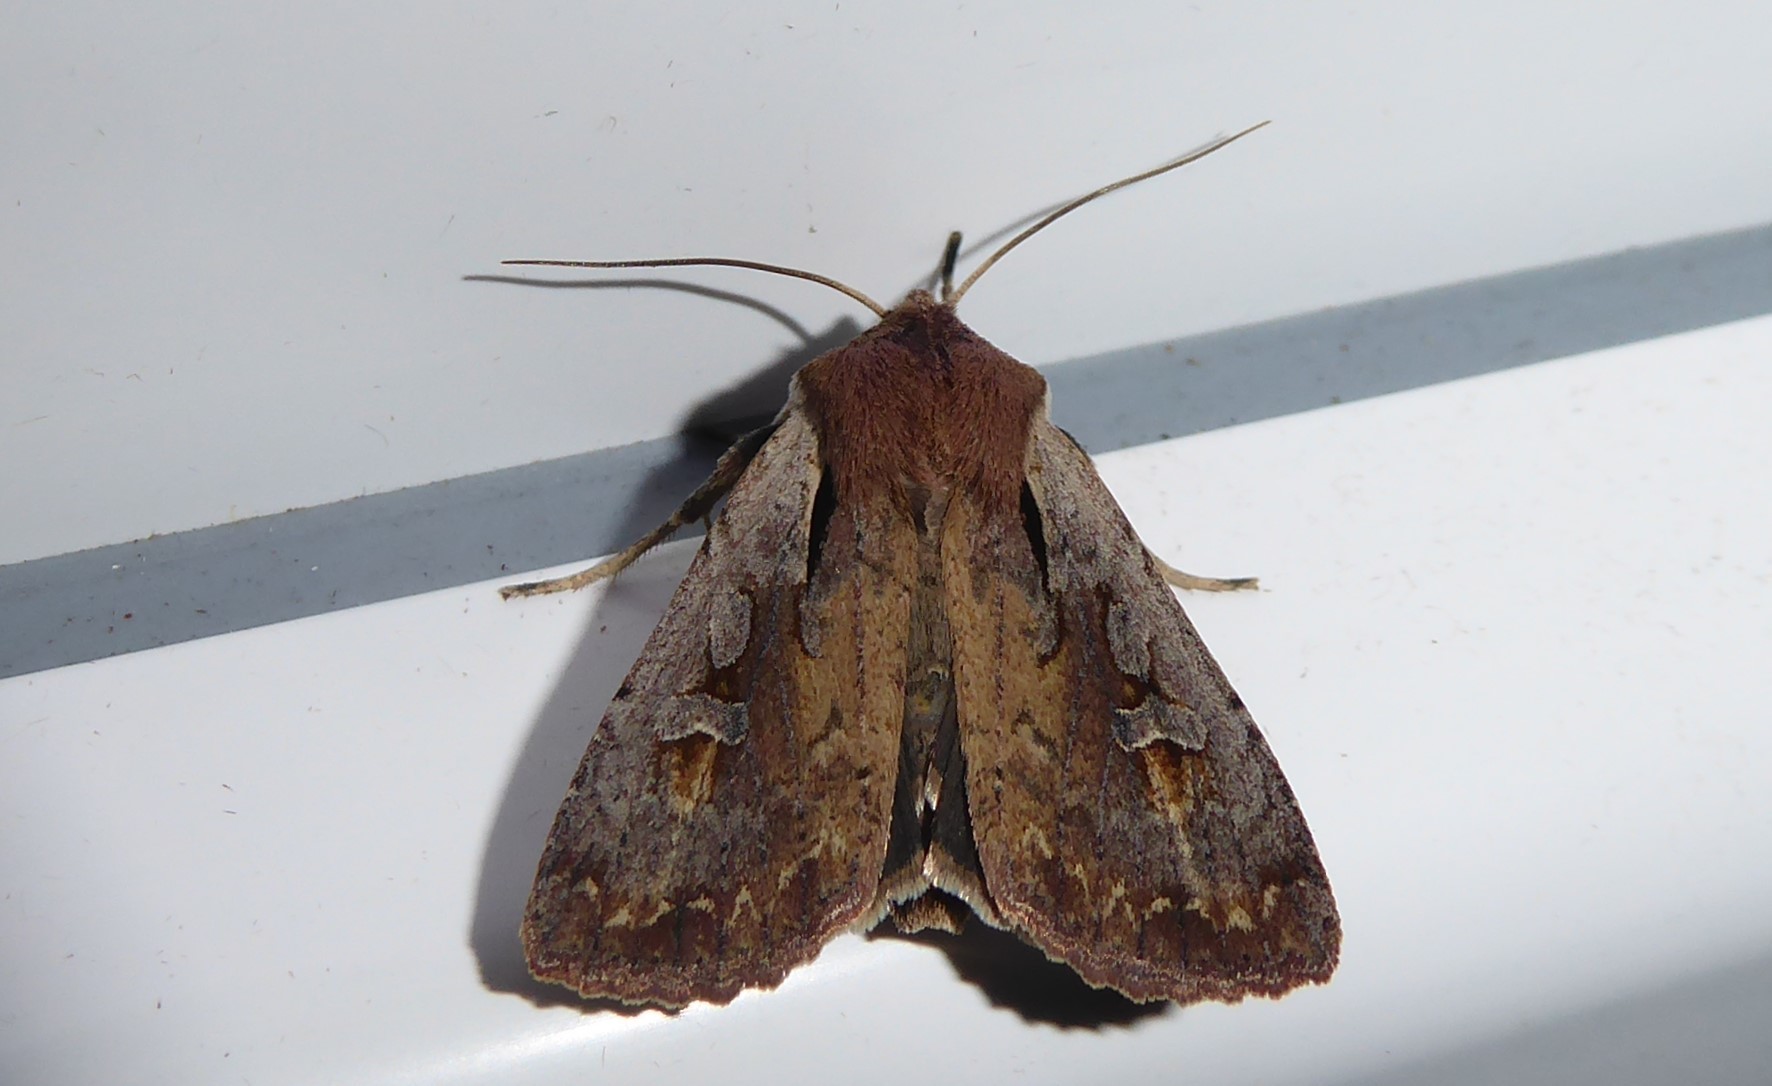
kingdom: Animalia
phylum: Arthropoda
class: Insecta
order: Lepidoptera
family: Noctuidae
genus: Ichneutica
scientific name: Ichneutica atristriga
